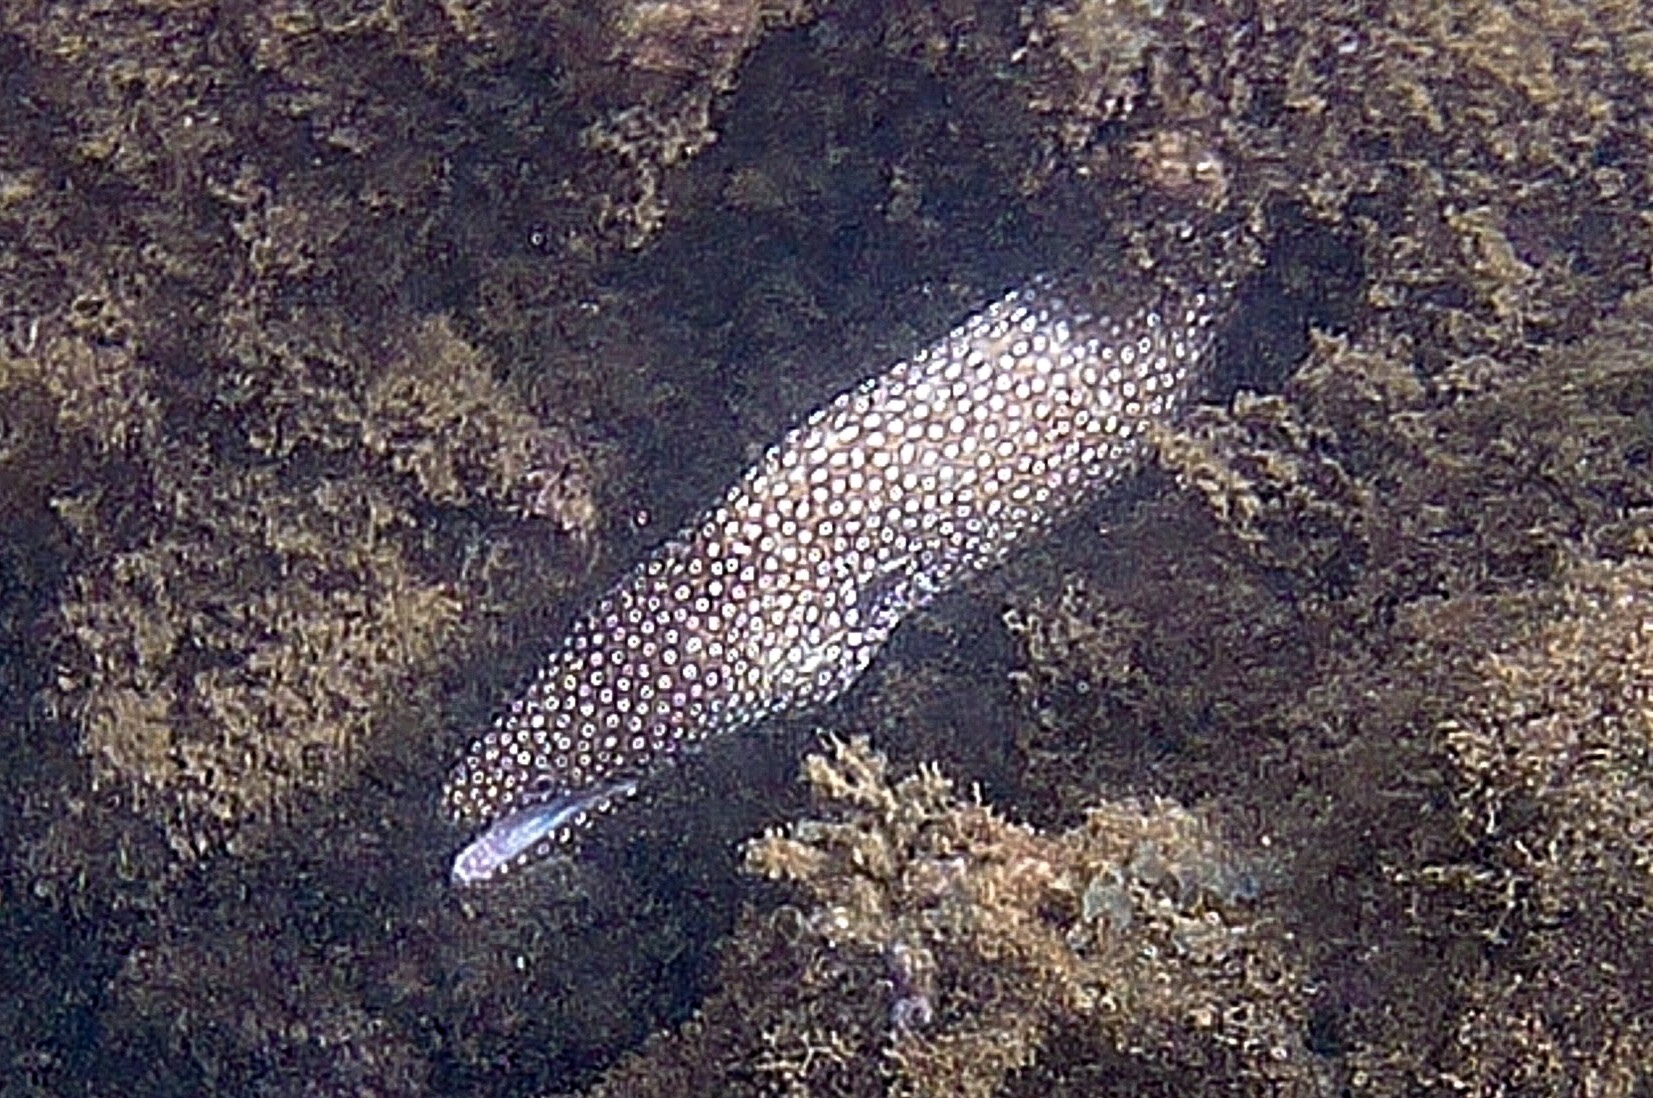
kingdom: Animalia
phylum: Chordata
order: Anguilliformes
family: Muraenidae
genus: Gymnothorax
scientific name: Gymnothorax meleagris
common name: Guineafowl moray
